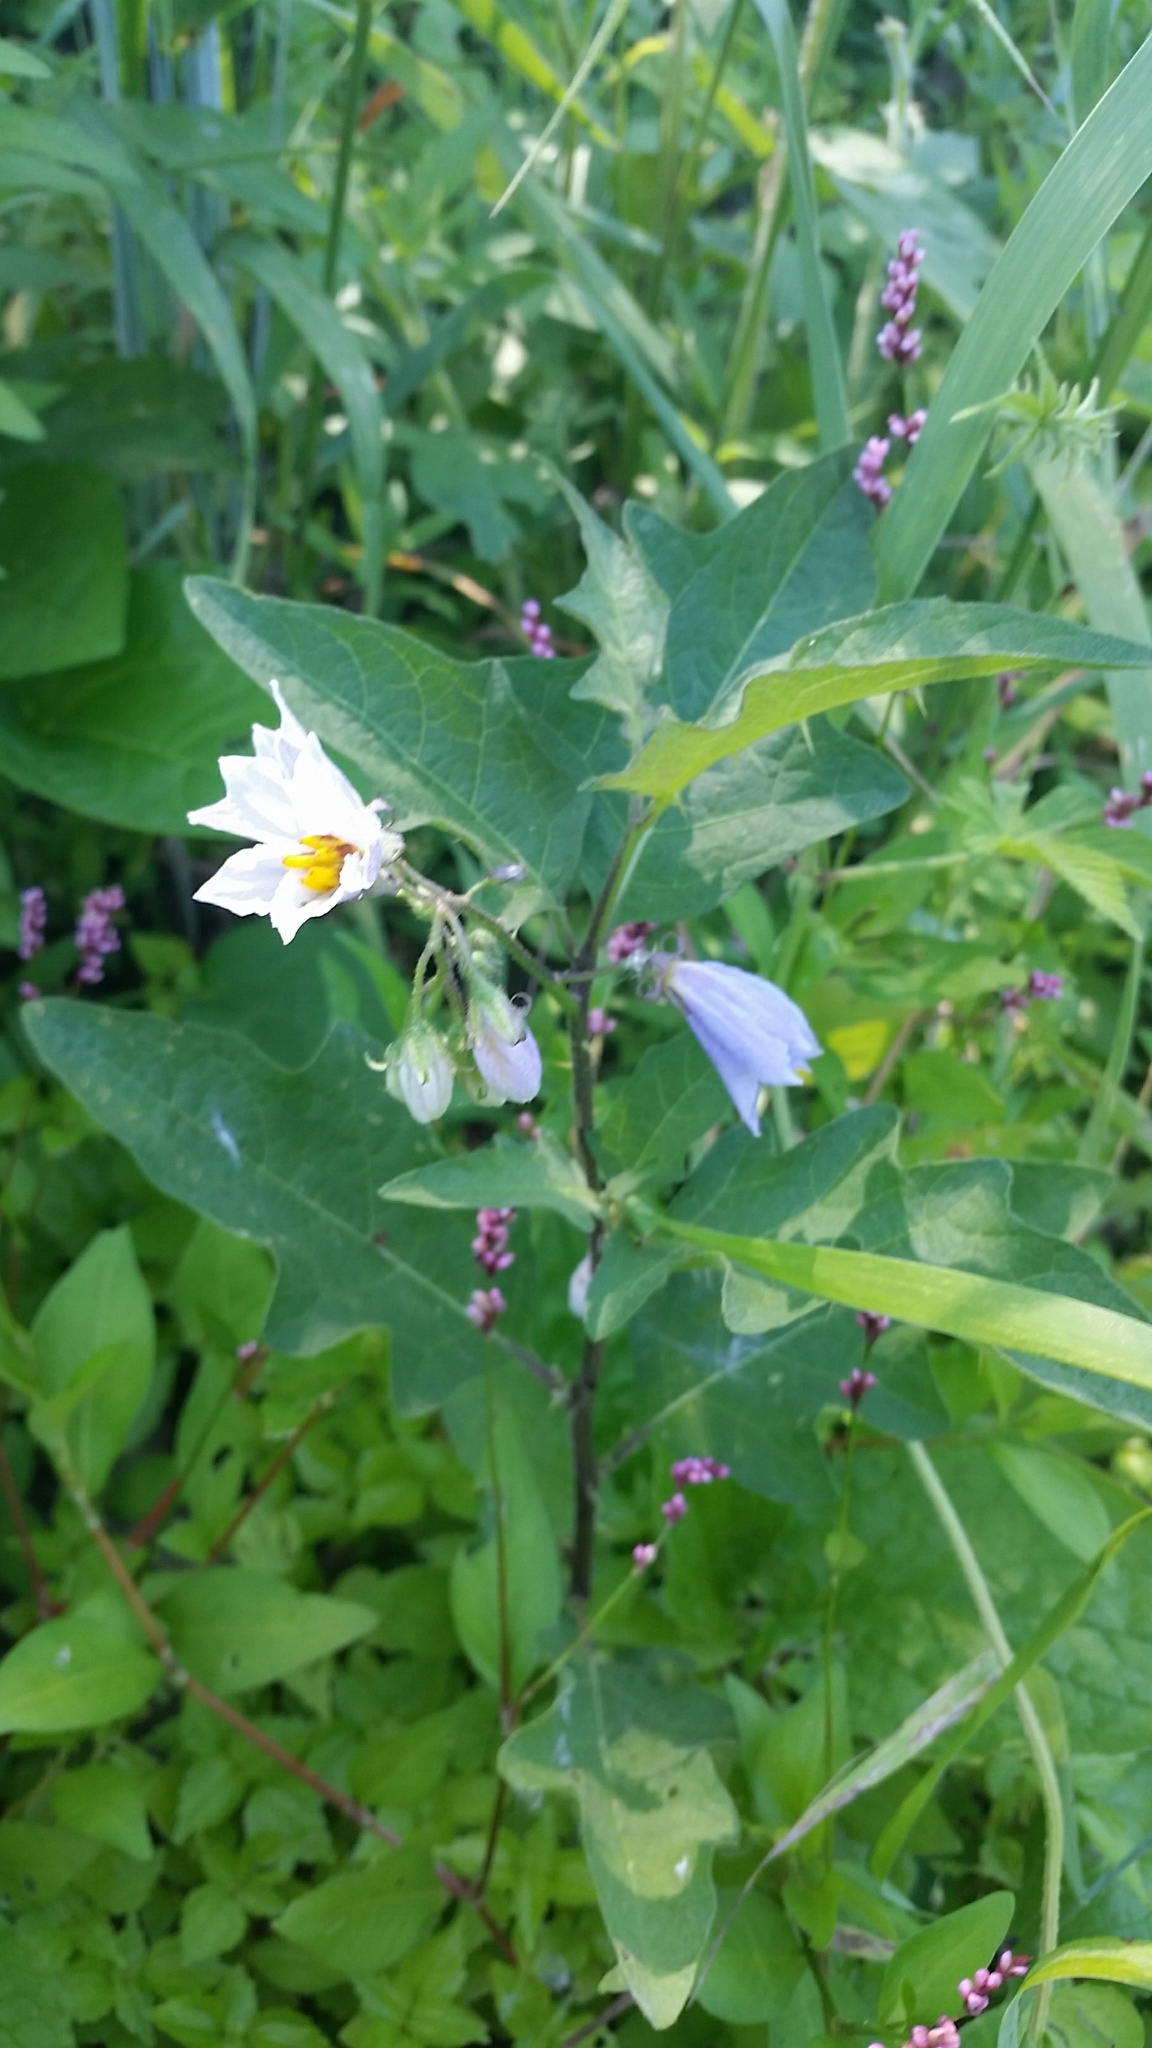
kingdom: Plantae
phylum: Tracheophyta
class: Magnoliopsida
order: Solanales
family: Solanaceae
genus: Solanum
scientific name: Solanum carolinense
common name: Horse-nettle
